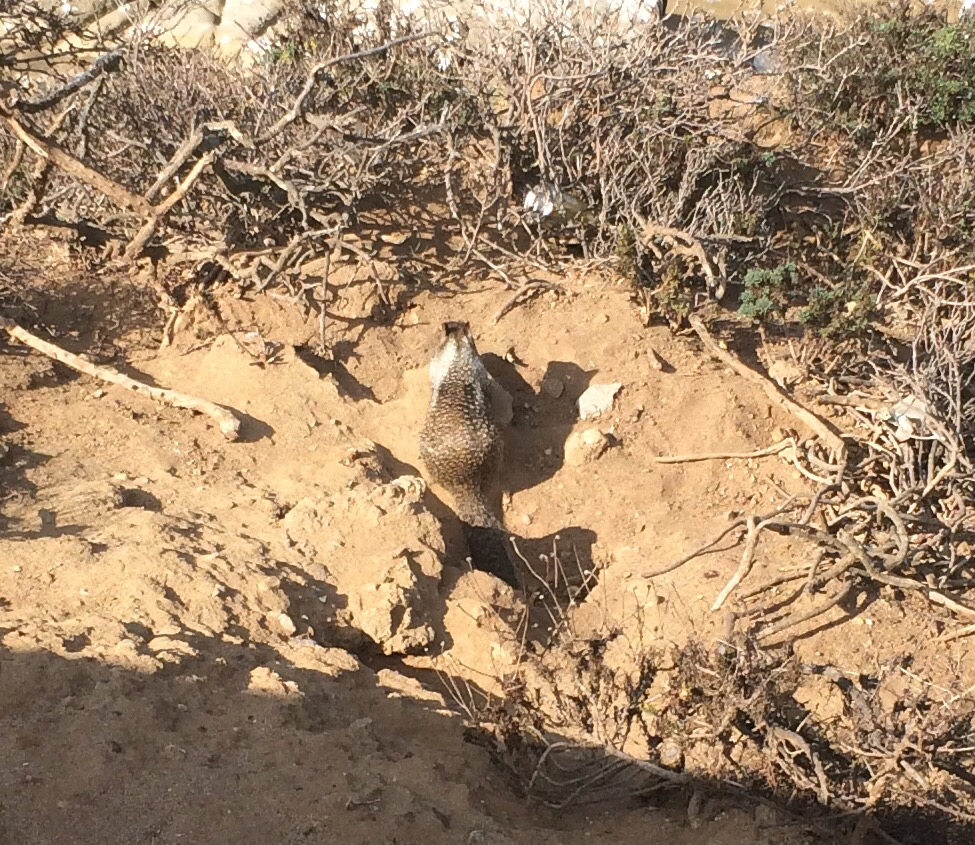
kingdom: Animalia
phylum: Chordata
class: Mammalia
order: Rodentia
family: Sciuridae
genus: Otospermophilus
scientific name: Otospermophilus beecheyi
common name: California ground squirrel
